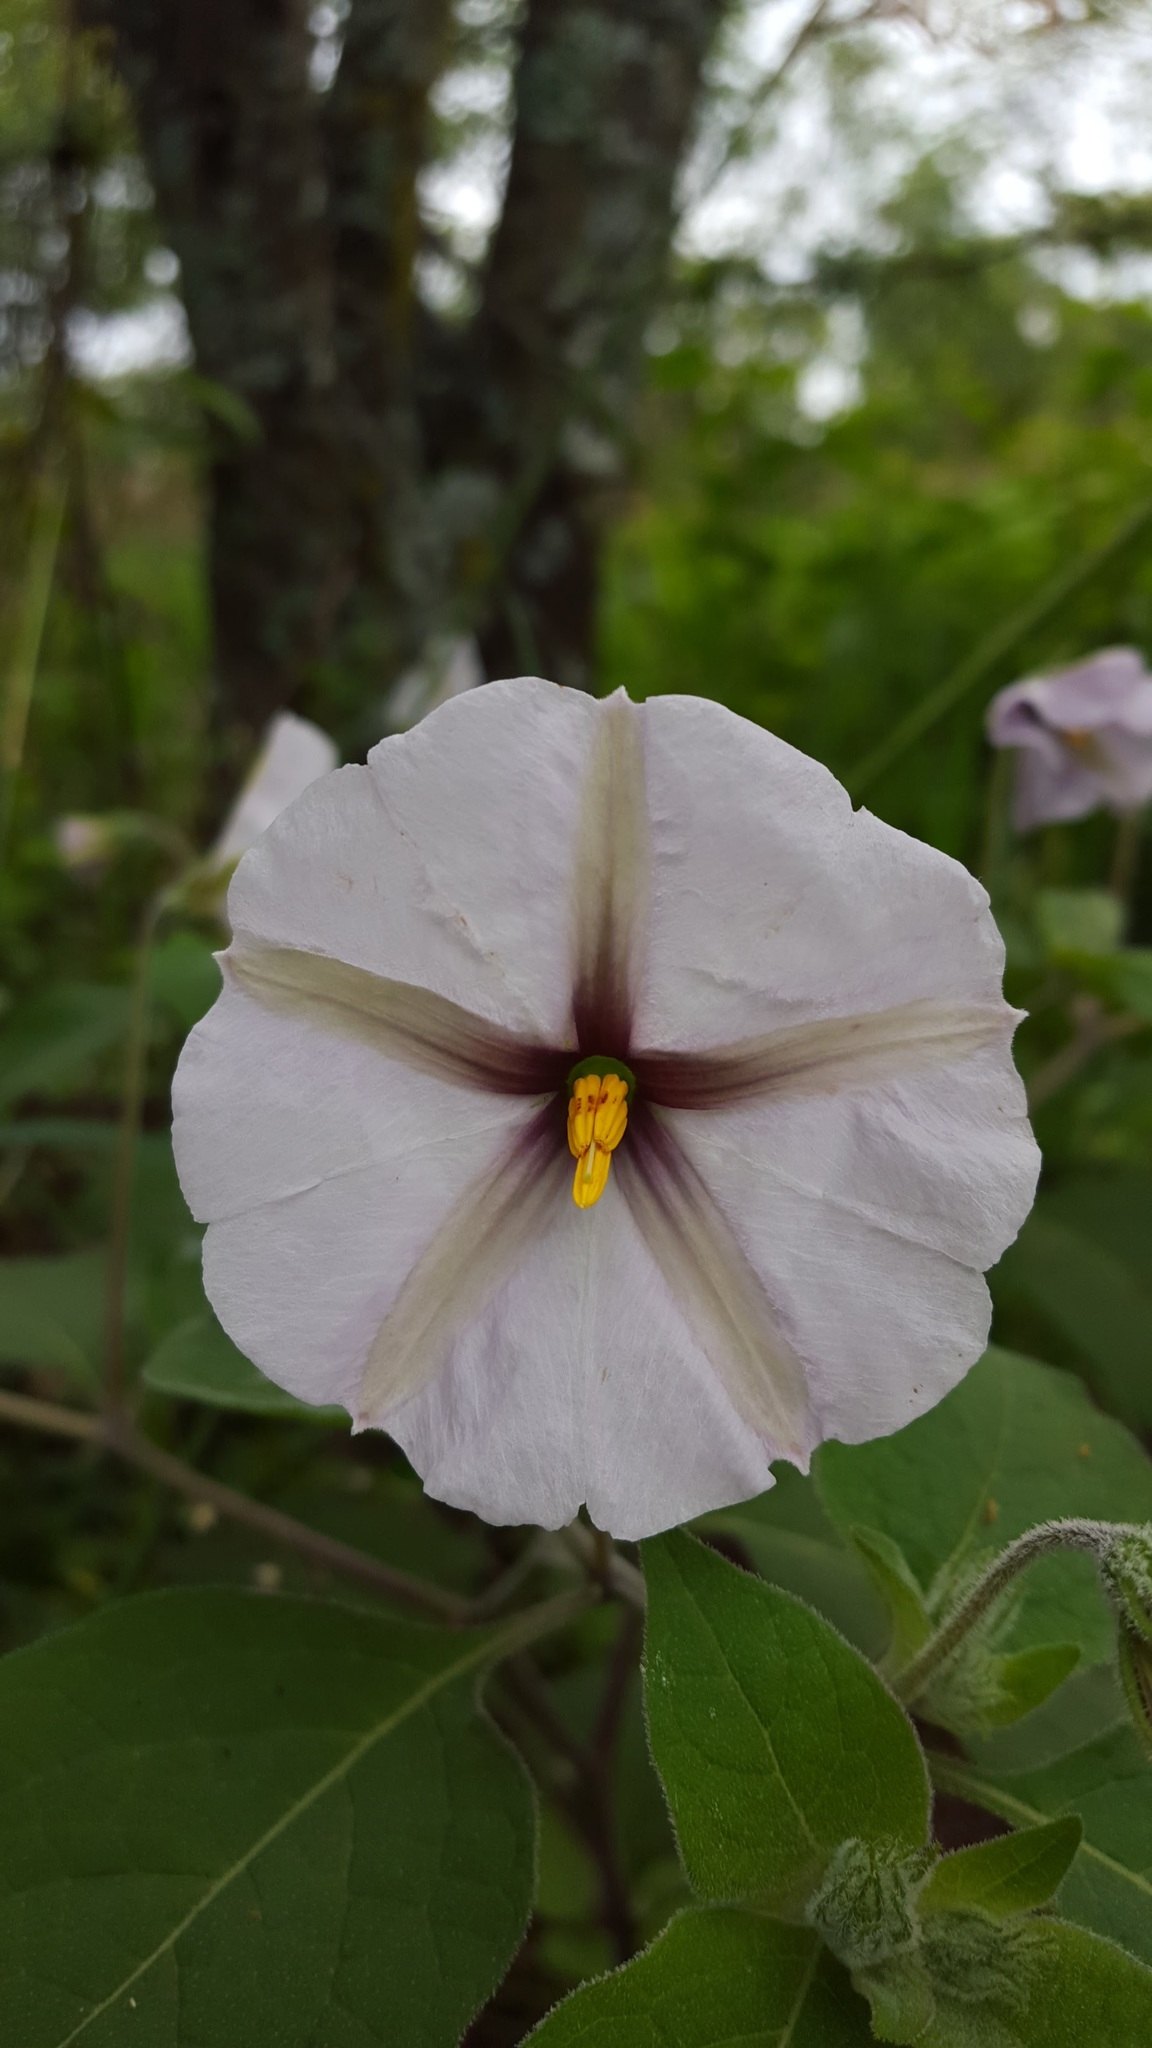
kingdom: Plantae
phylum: Tracheophyta
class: Magnoliopsida
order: Solanales
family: Solanaceae
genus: Lycianthes
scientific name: Lycianthes peduncularis
